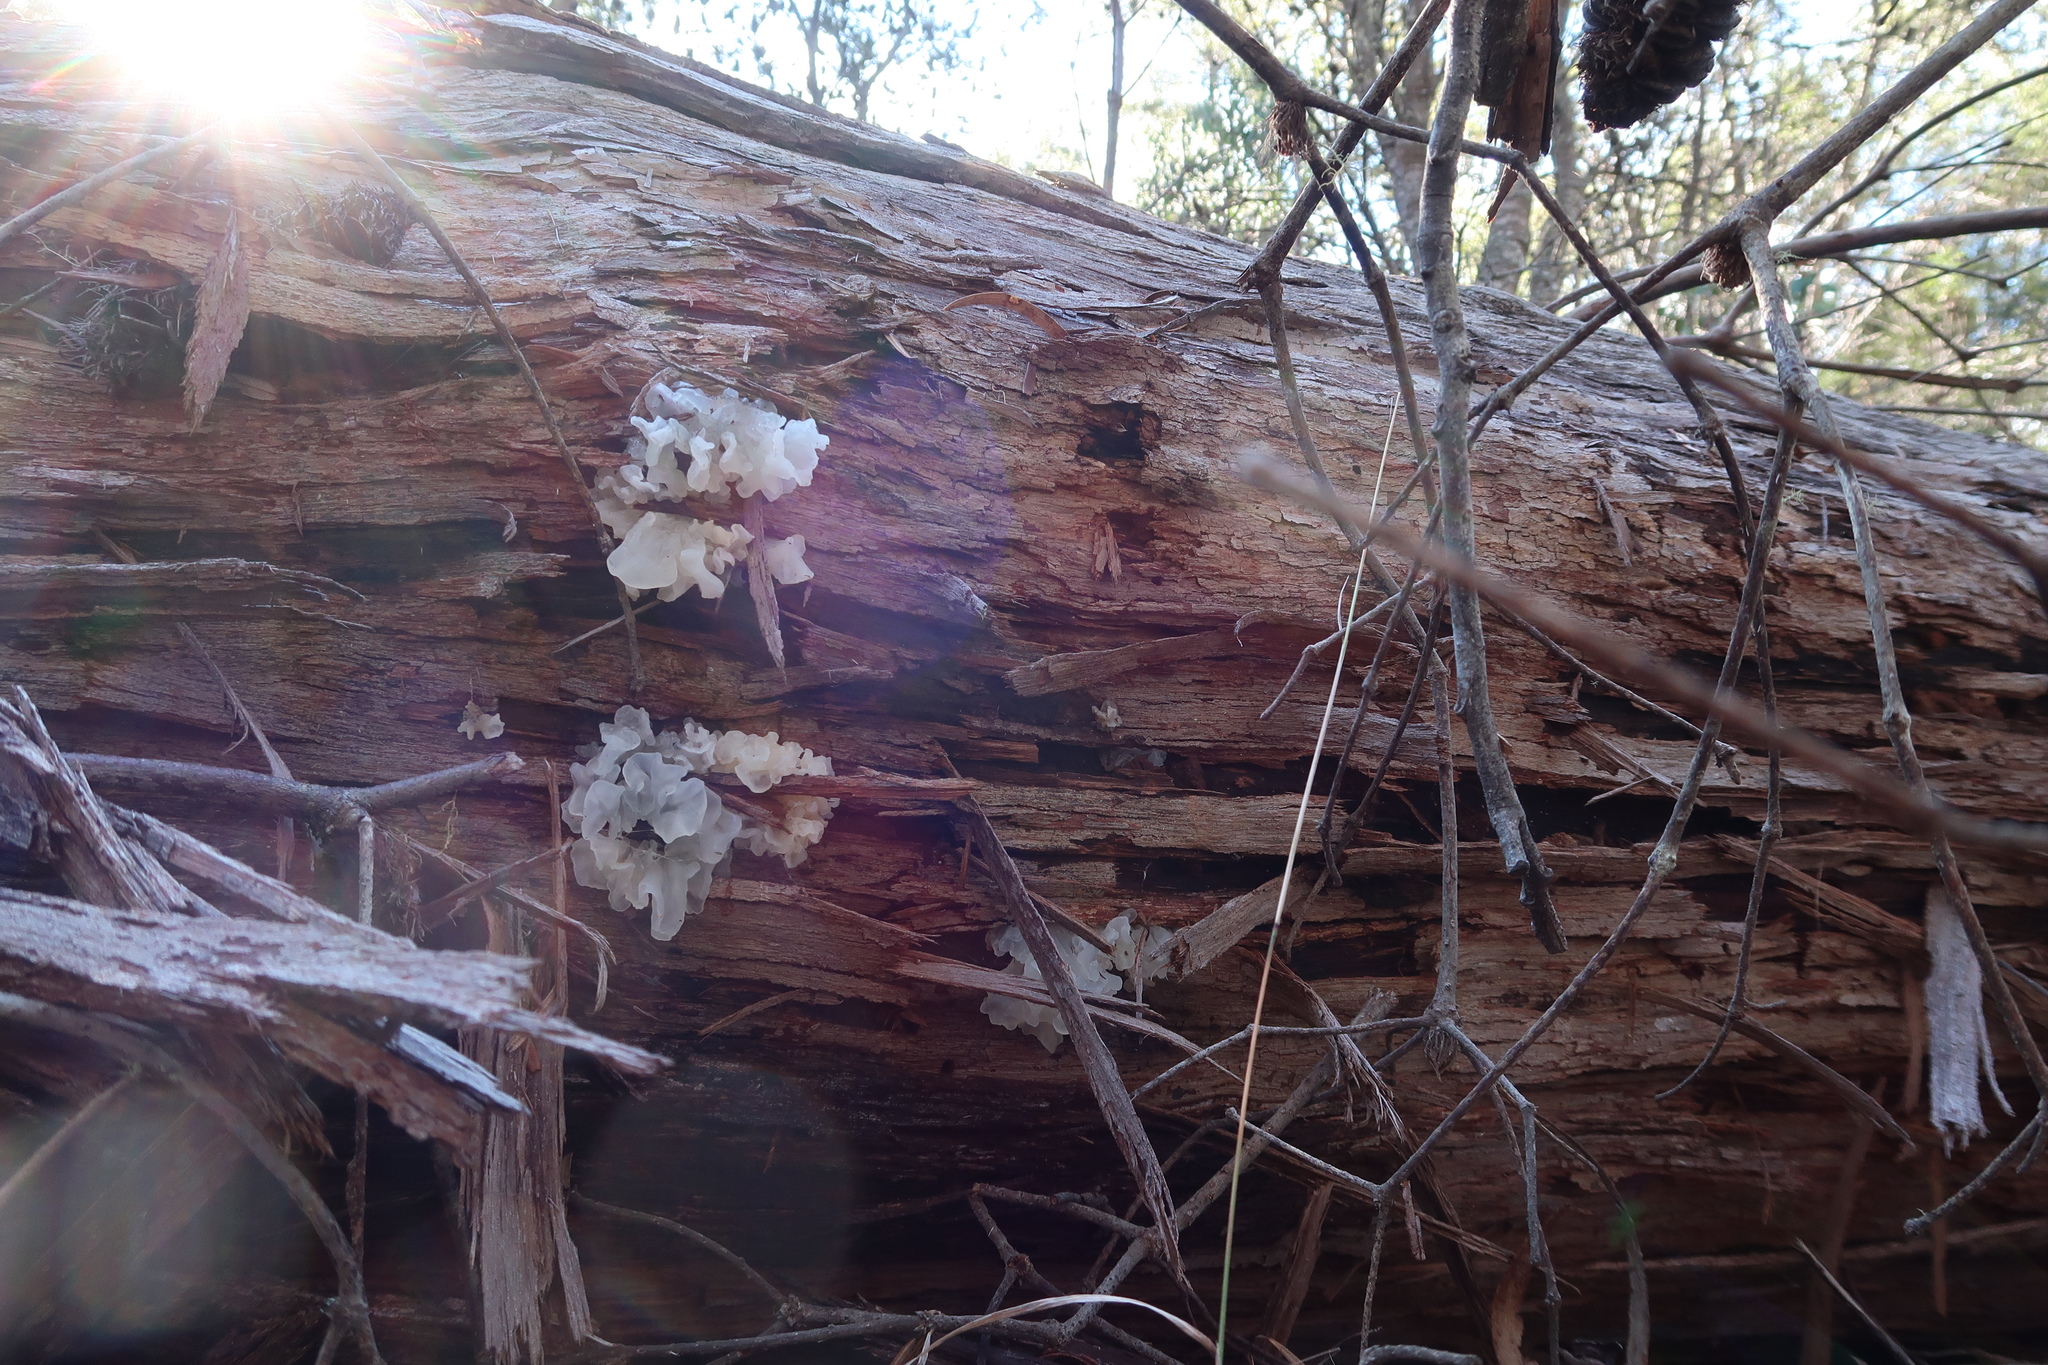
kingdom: Fungi
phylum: Basidiomycota
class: Tremellomycetes
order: Tremellales
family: Tremellaceae
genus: Tremella
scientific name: Tremella fuciformis
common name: Snow fungus
